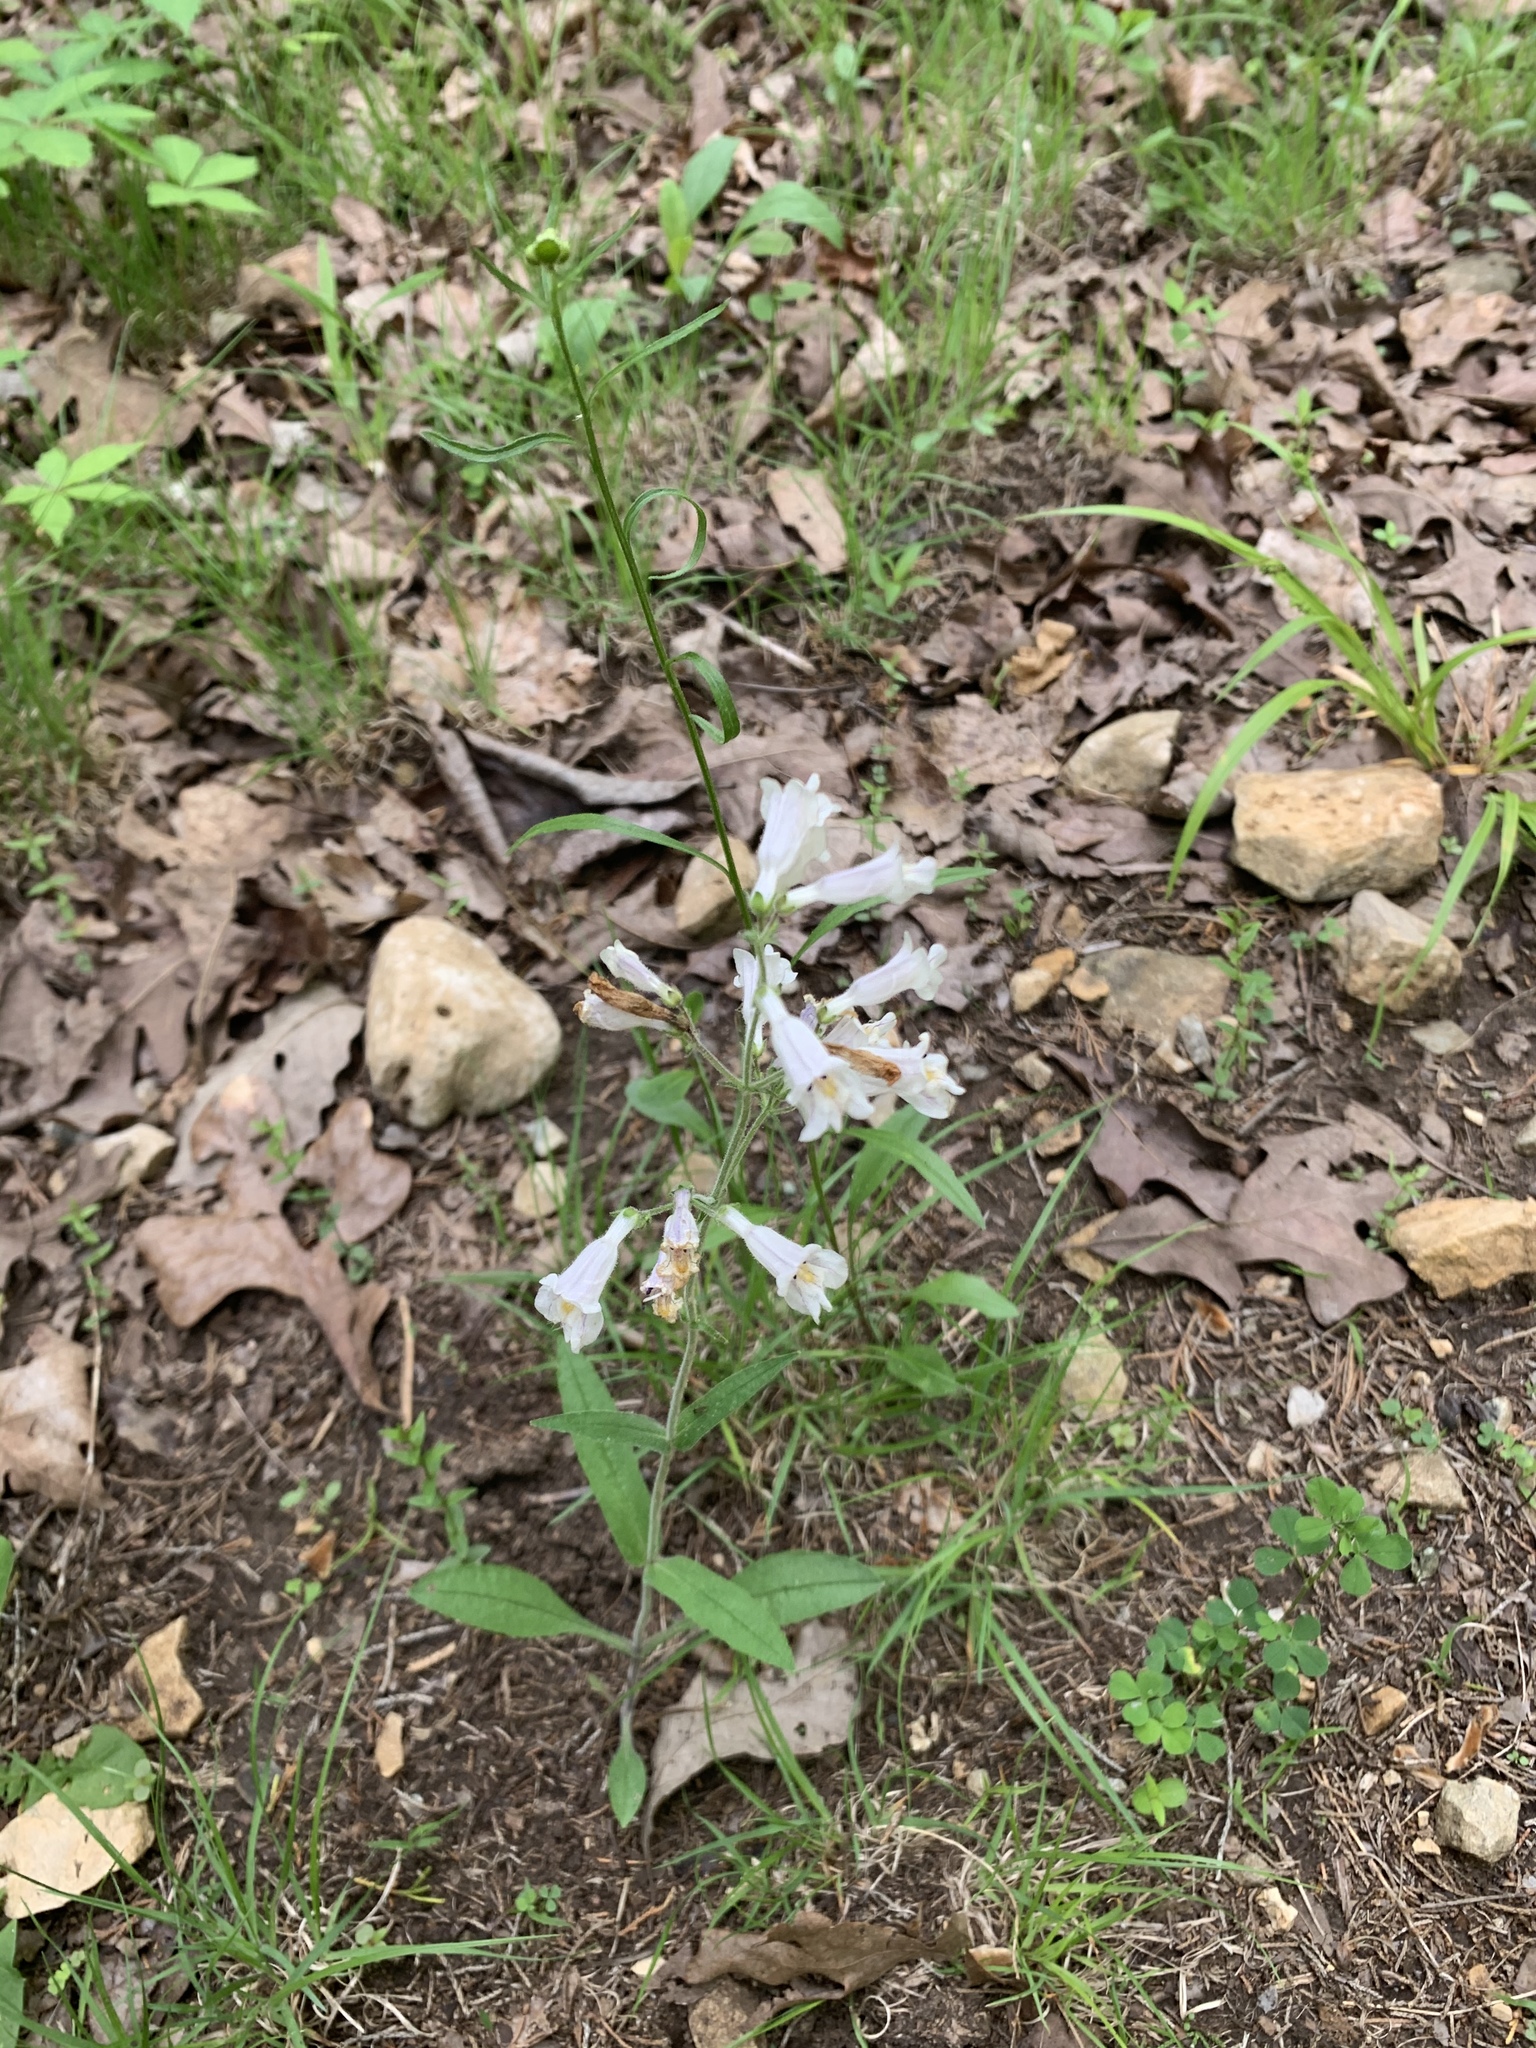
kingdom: Plantae
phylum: Tracheophyta
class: Magnoliopsida
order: Lamiales
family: Plantaginaceae
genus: Penstemon
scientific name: Penstemon pallidus
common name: Pale beardtongue
